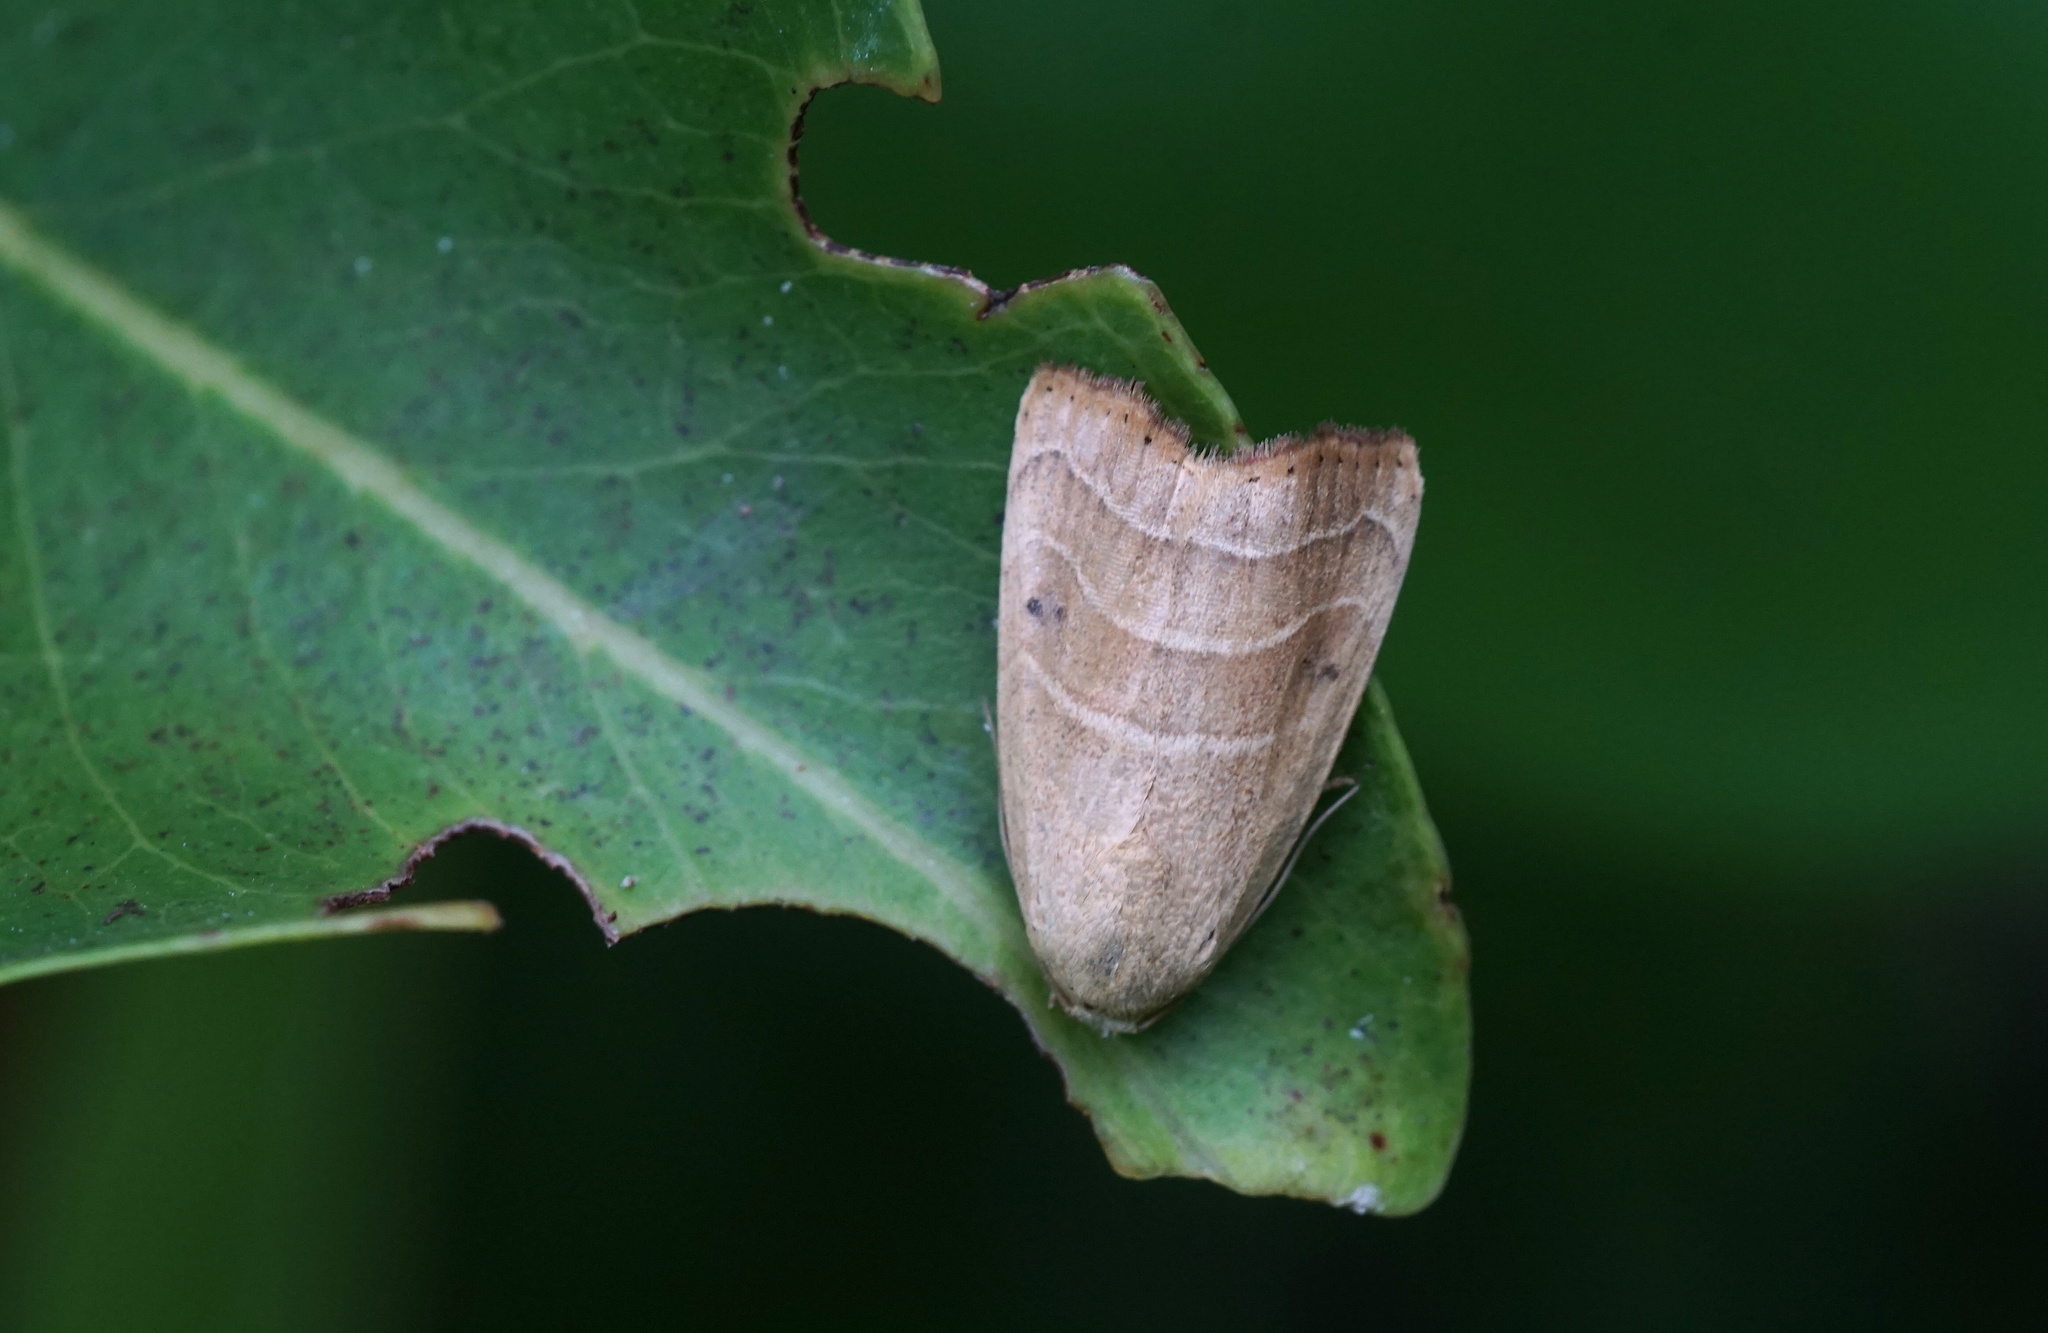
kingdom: Animalia
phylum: Arthropoda
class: Insecta
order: Lepidoptera
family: Noctuidae
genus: Bagisara
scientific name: Bagisara repanda
